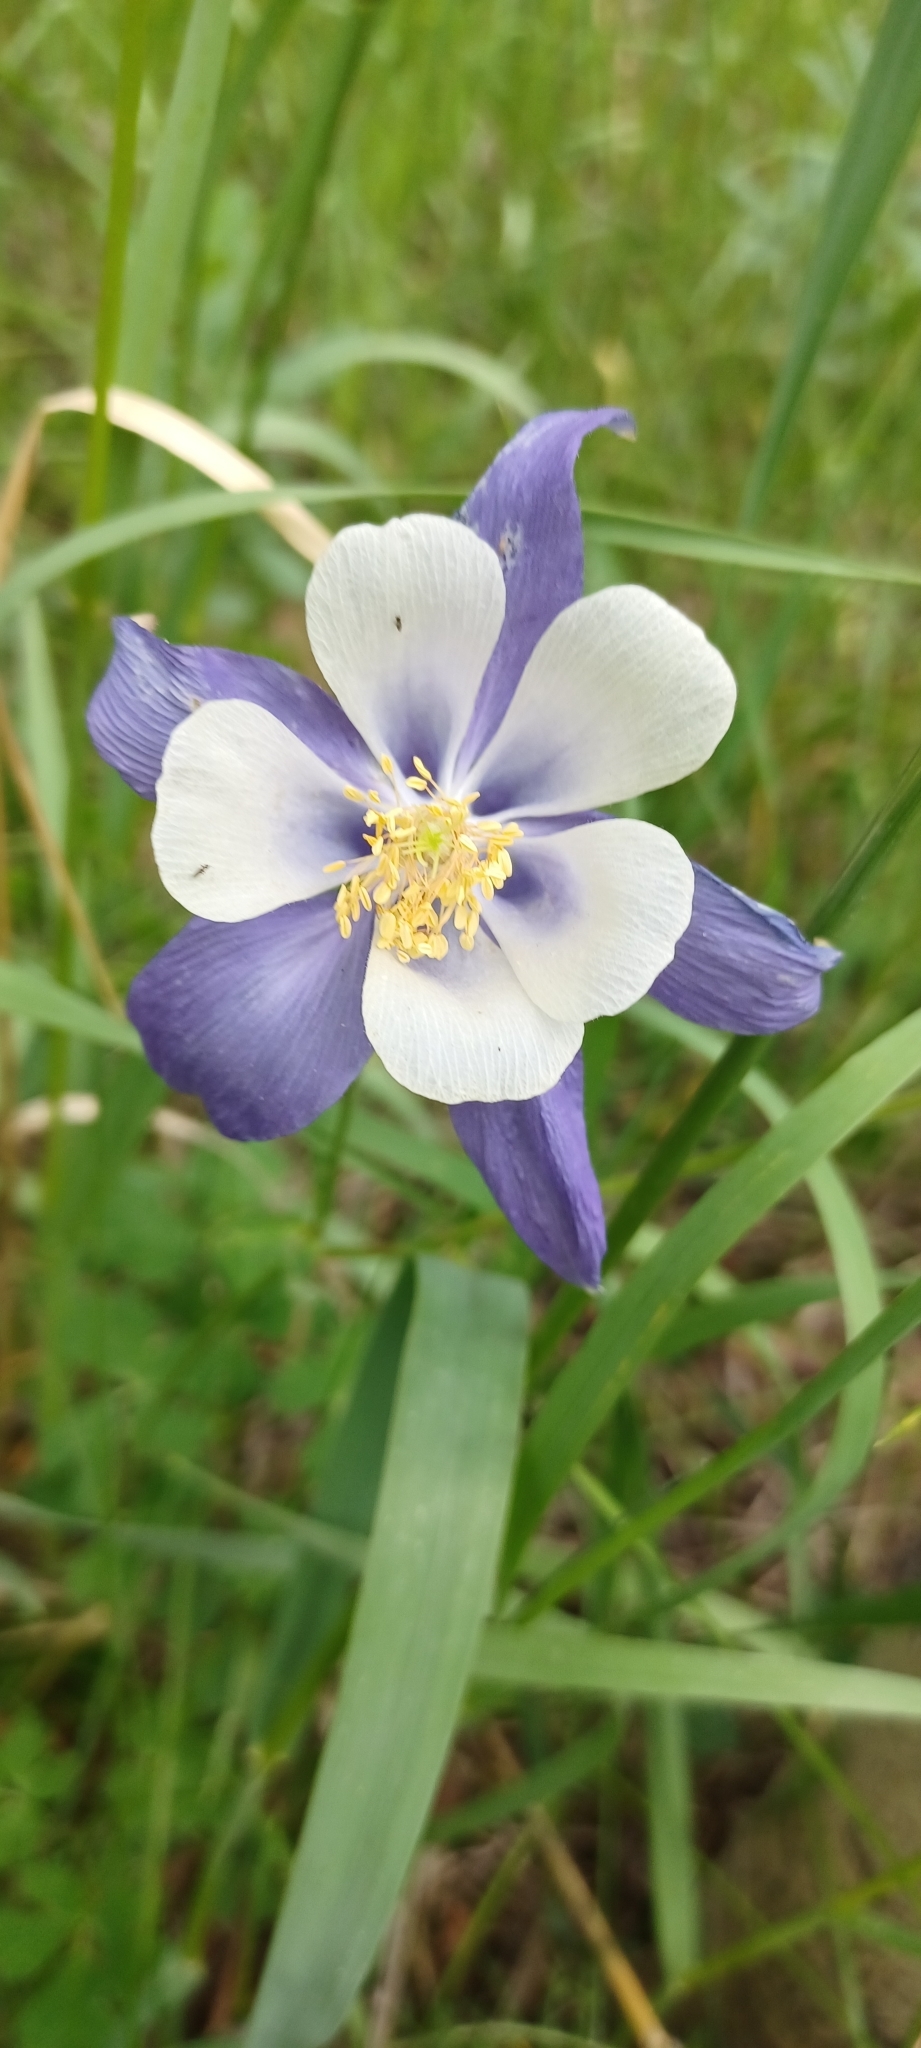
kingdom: Plantae
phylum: Tracheophyta
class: Magnoliopsida
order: Ranunculales
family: Ranunculaceae
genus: Aquilegia
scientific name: Aquilegia coerulea
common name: Rocky mountain columbine
